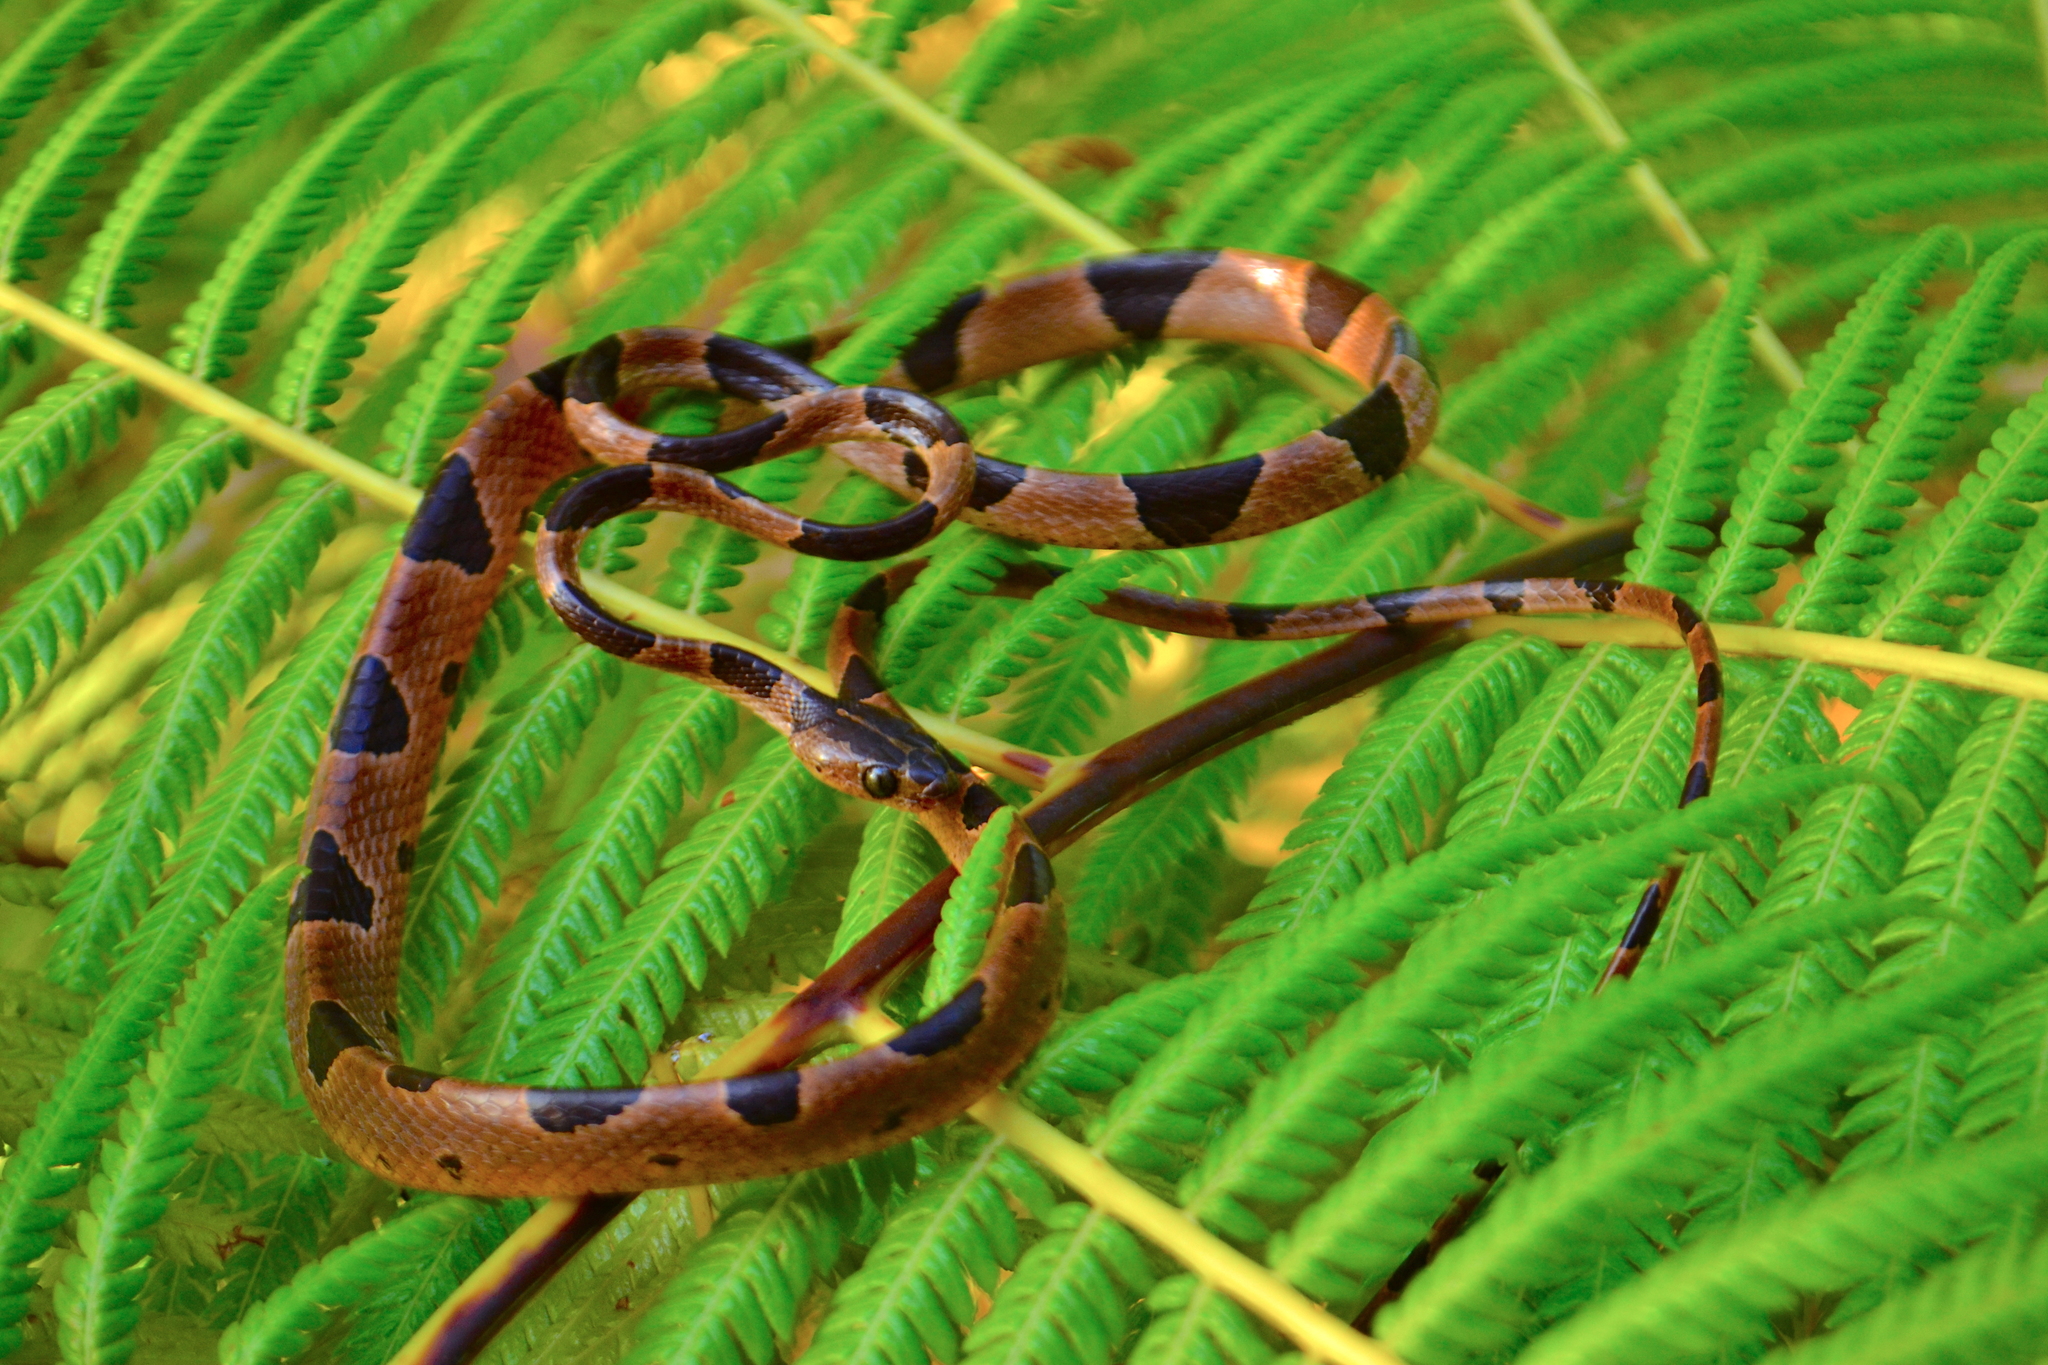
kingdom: Animalia
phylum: Chordata
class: Squamata
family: Colubridae
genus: Imantodes
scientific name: Imantodes cenchoa
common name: Blunthead tree snake
